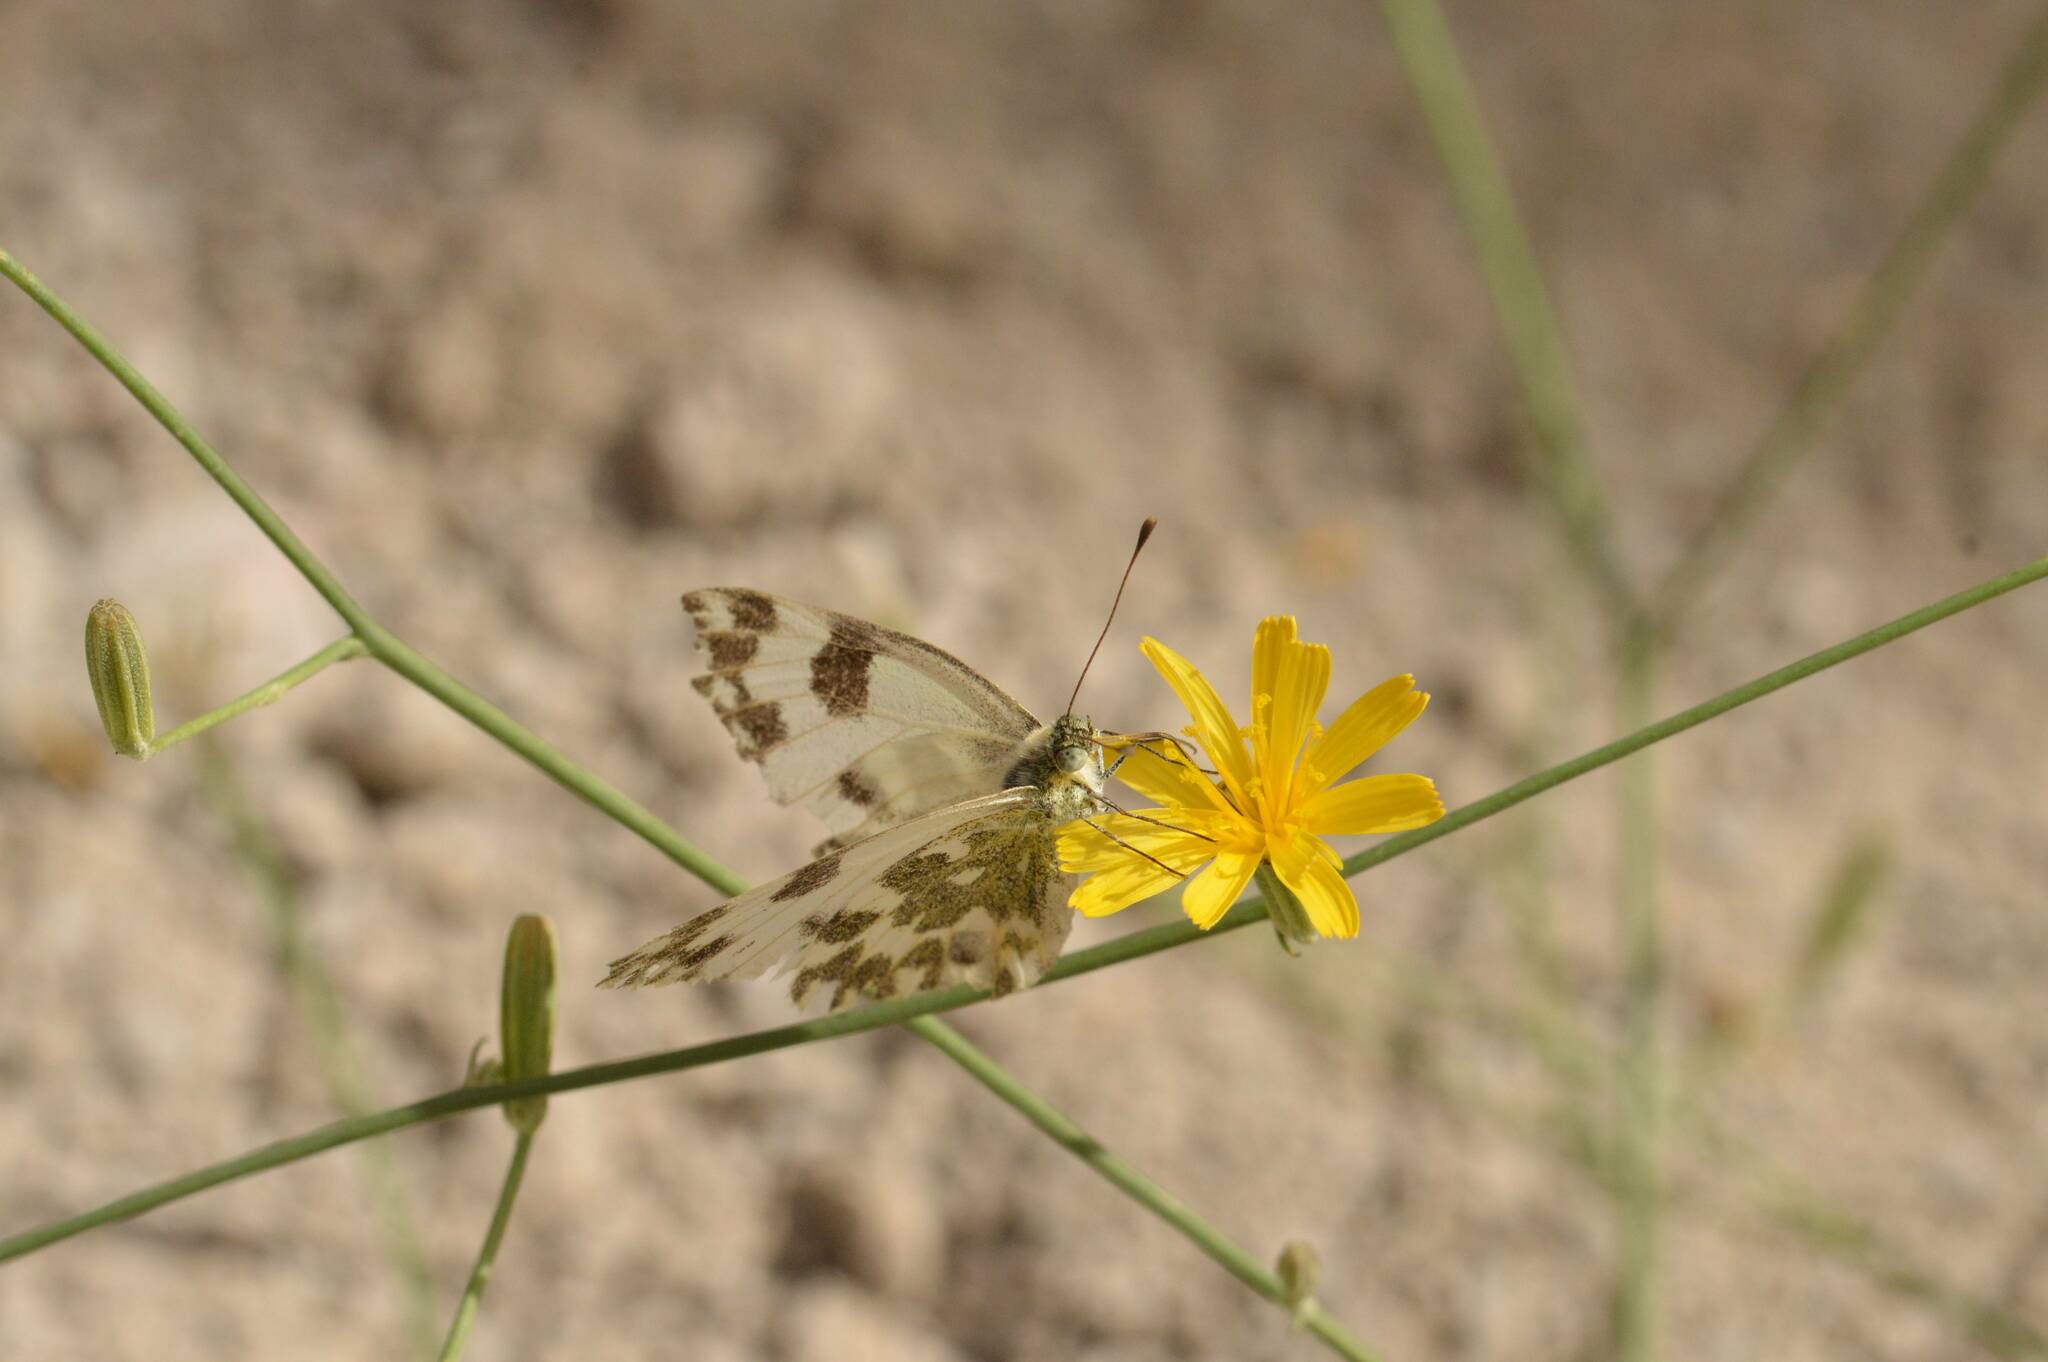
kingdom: Animalia
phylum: Arthropoda
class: Insecta
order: Lepidoptera
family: Pieridae
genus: Pontia
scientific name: Pontia daplidice
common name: Bath white
